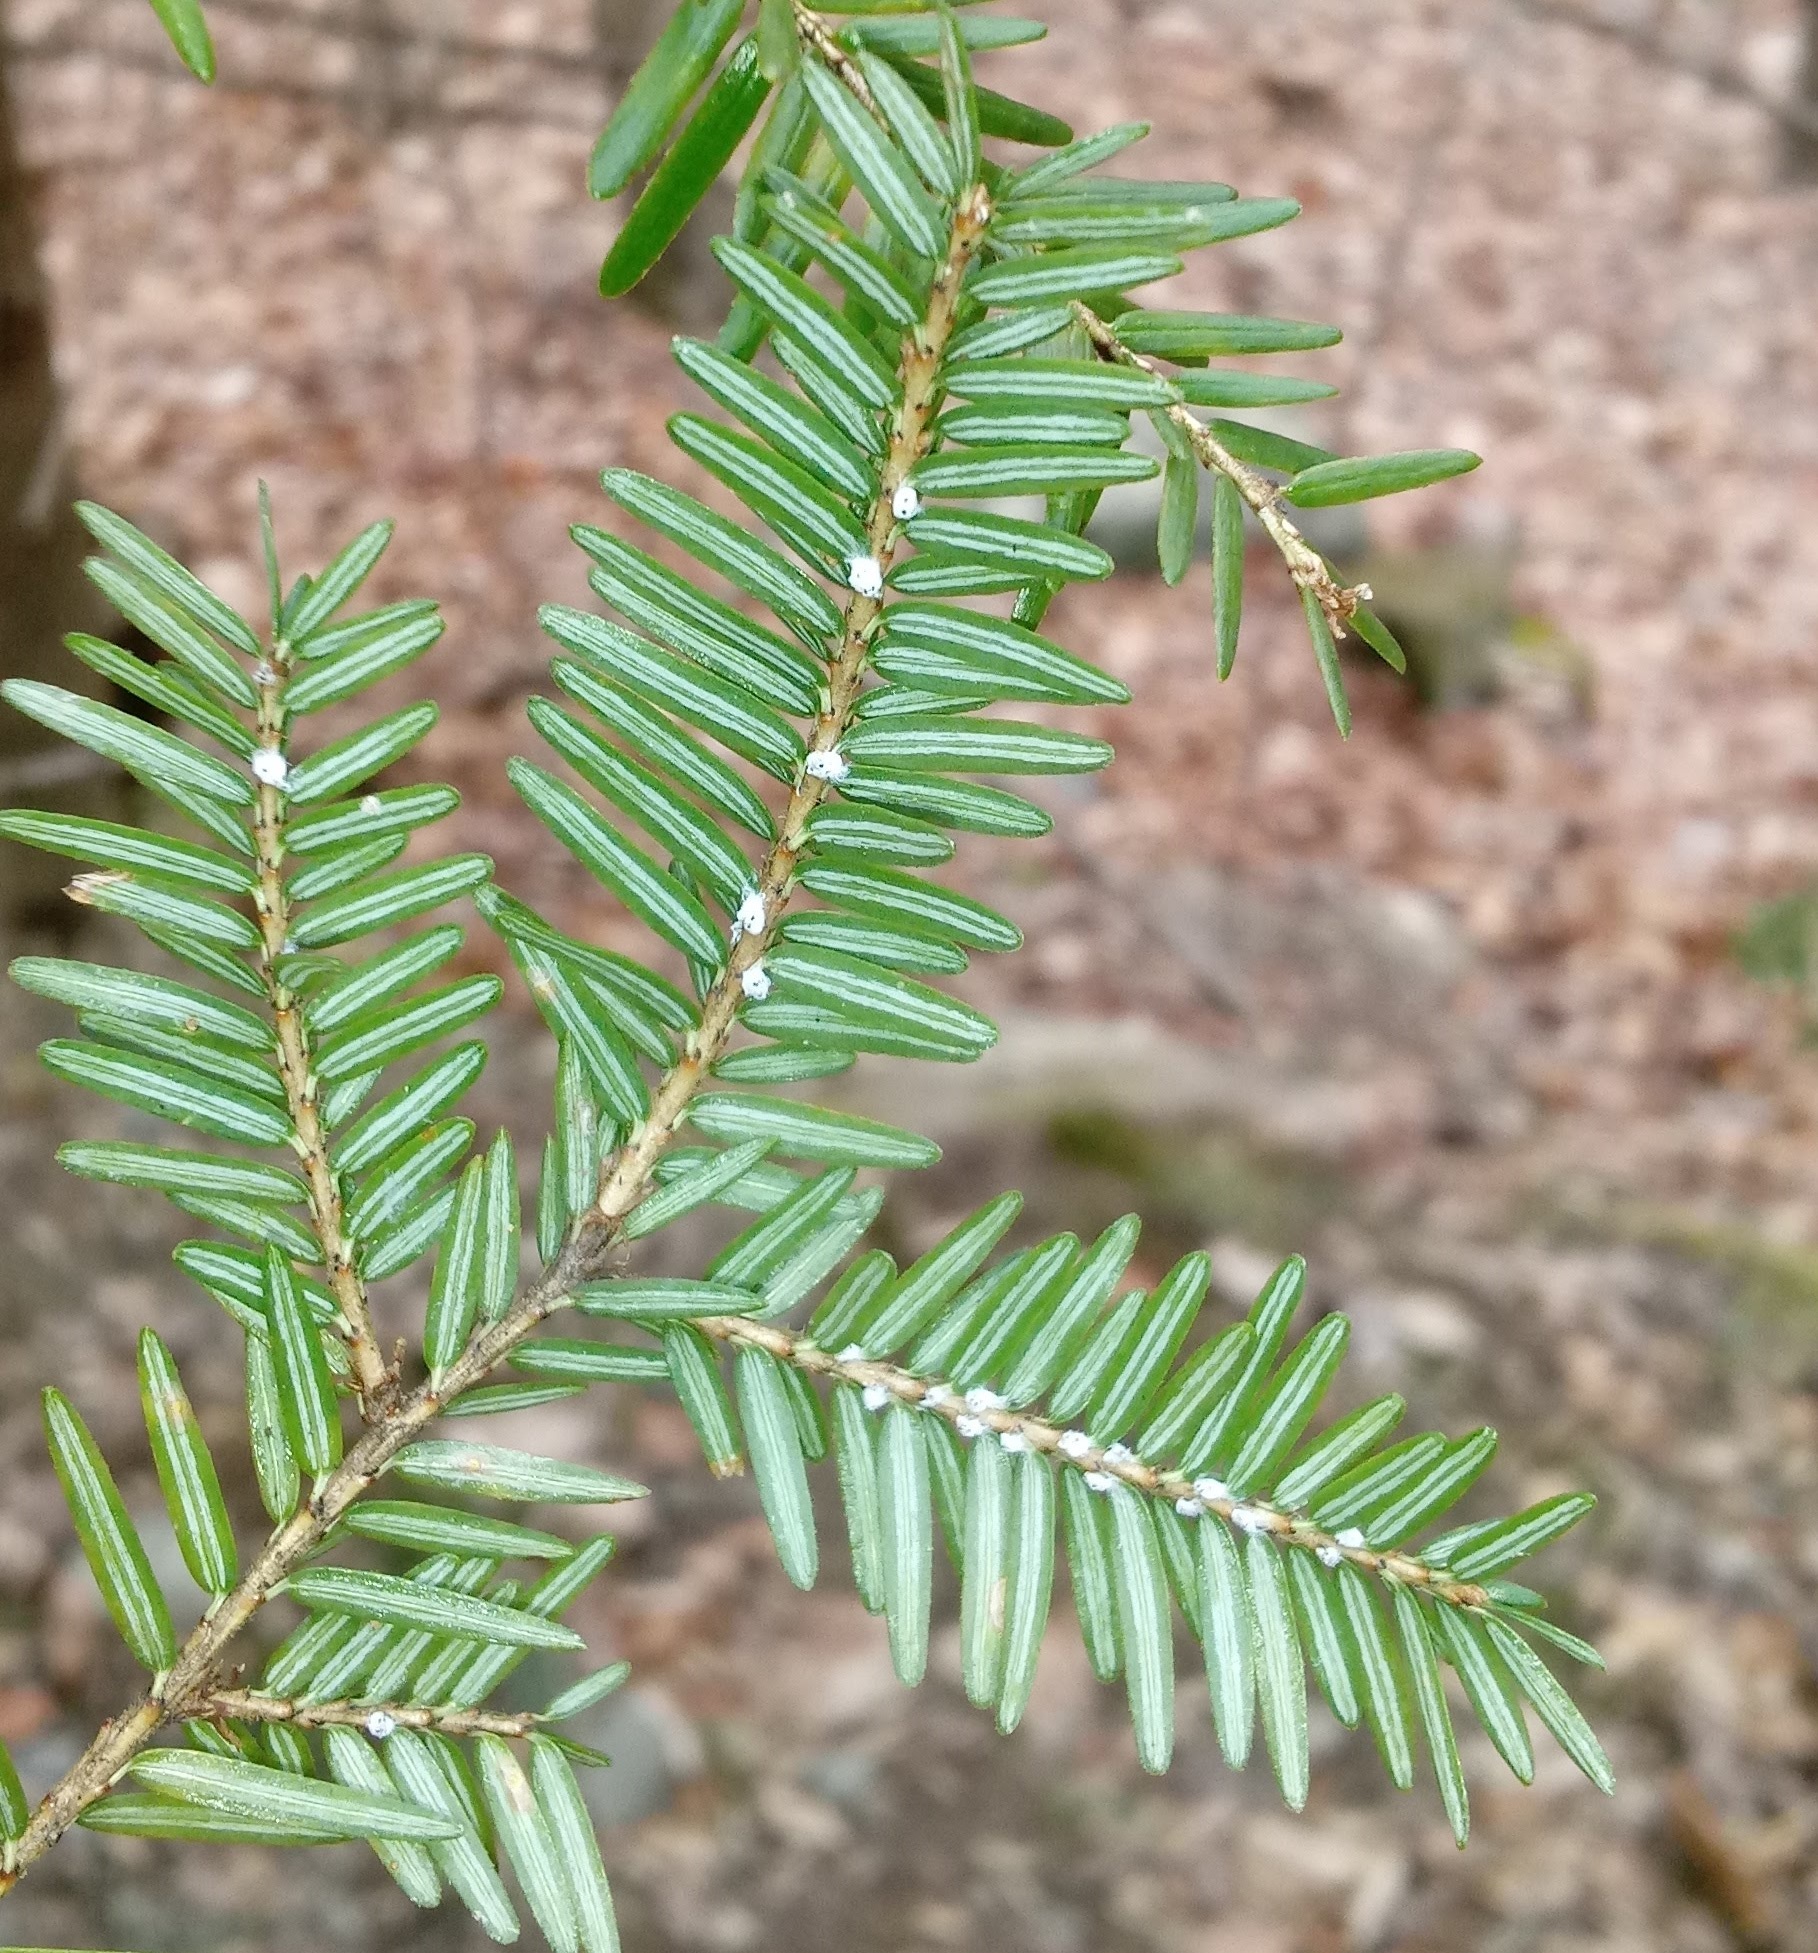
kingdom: Animalia
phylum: Arthropoda
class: Insecta
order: Hemiptera
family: Adelgidae
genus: Adelges
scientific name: Adelges tsugae
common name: Hemlock woolly adelgid
